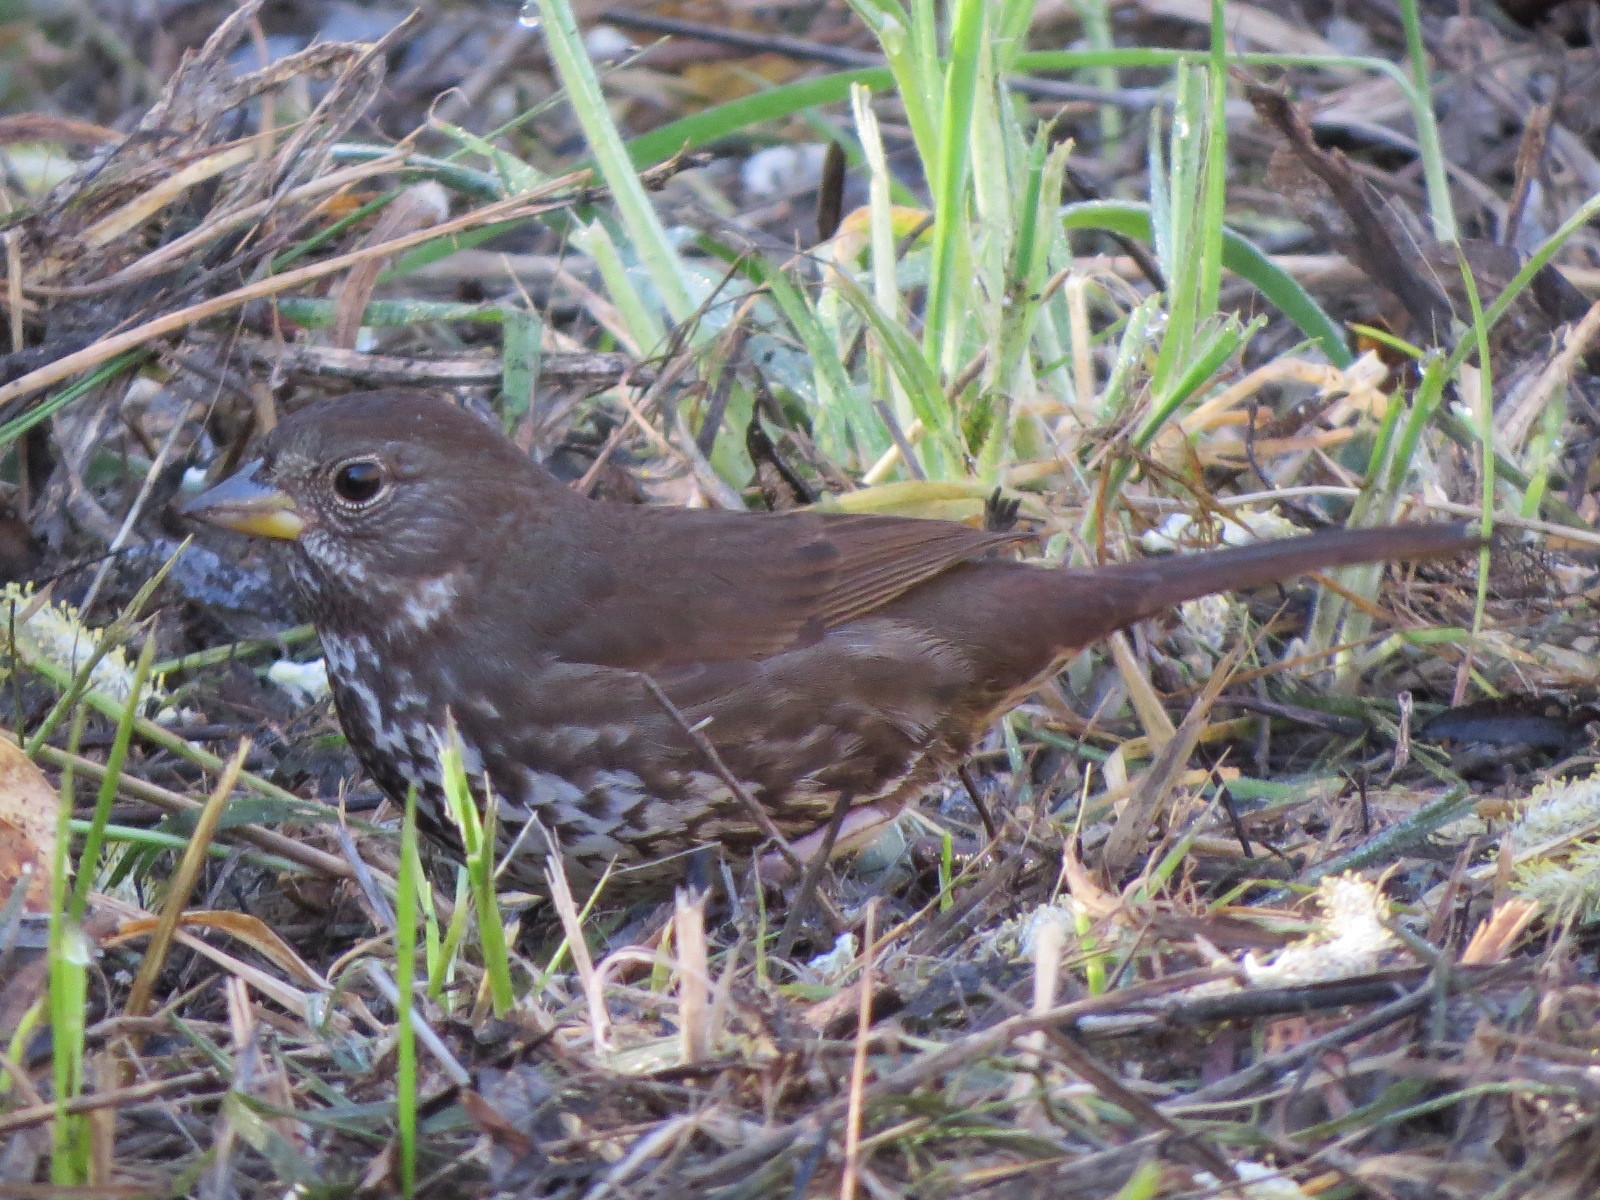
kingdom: Animalia
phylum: Chordata
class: Aves
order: Passeriformes
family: Passerellidae
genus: Passerella
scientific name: Passerella iliaca
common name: Fox sparrow
